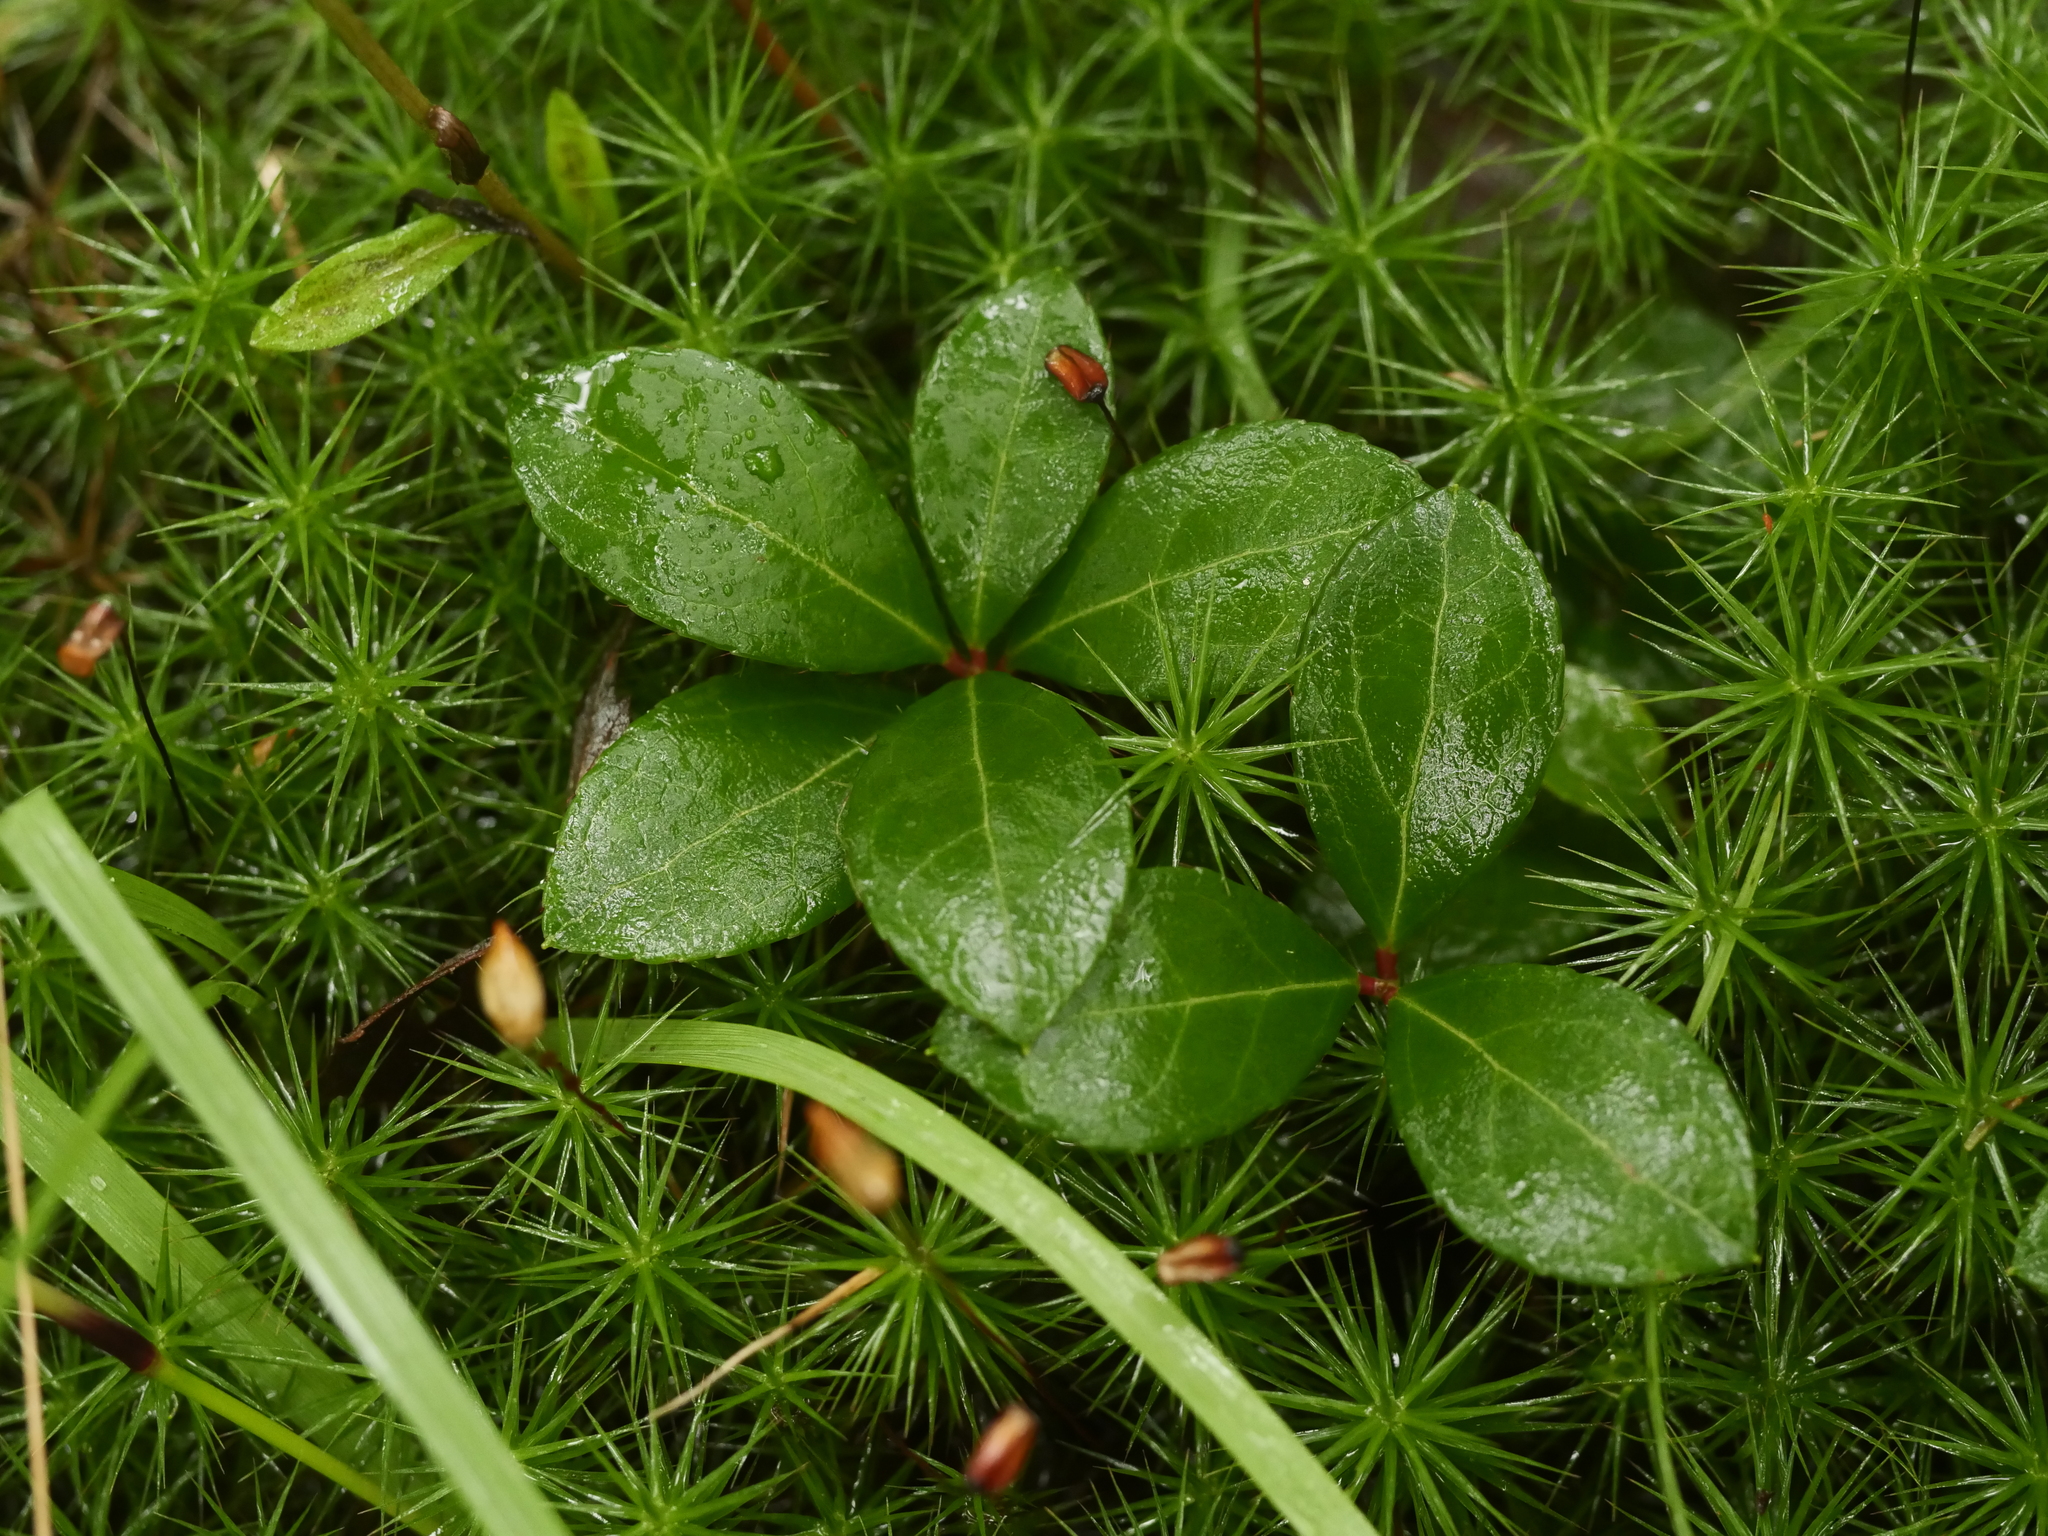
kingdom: Plantae
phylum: Tracheophyta
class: Magnoliopsida
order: Ericales
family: Ericaceae
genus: Gaultheria
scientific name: Gaultheria procumbens
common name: Checkerberry
